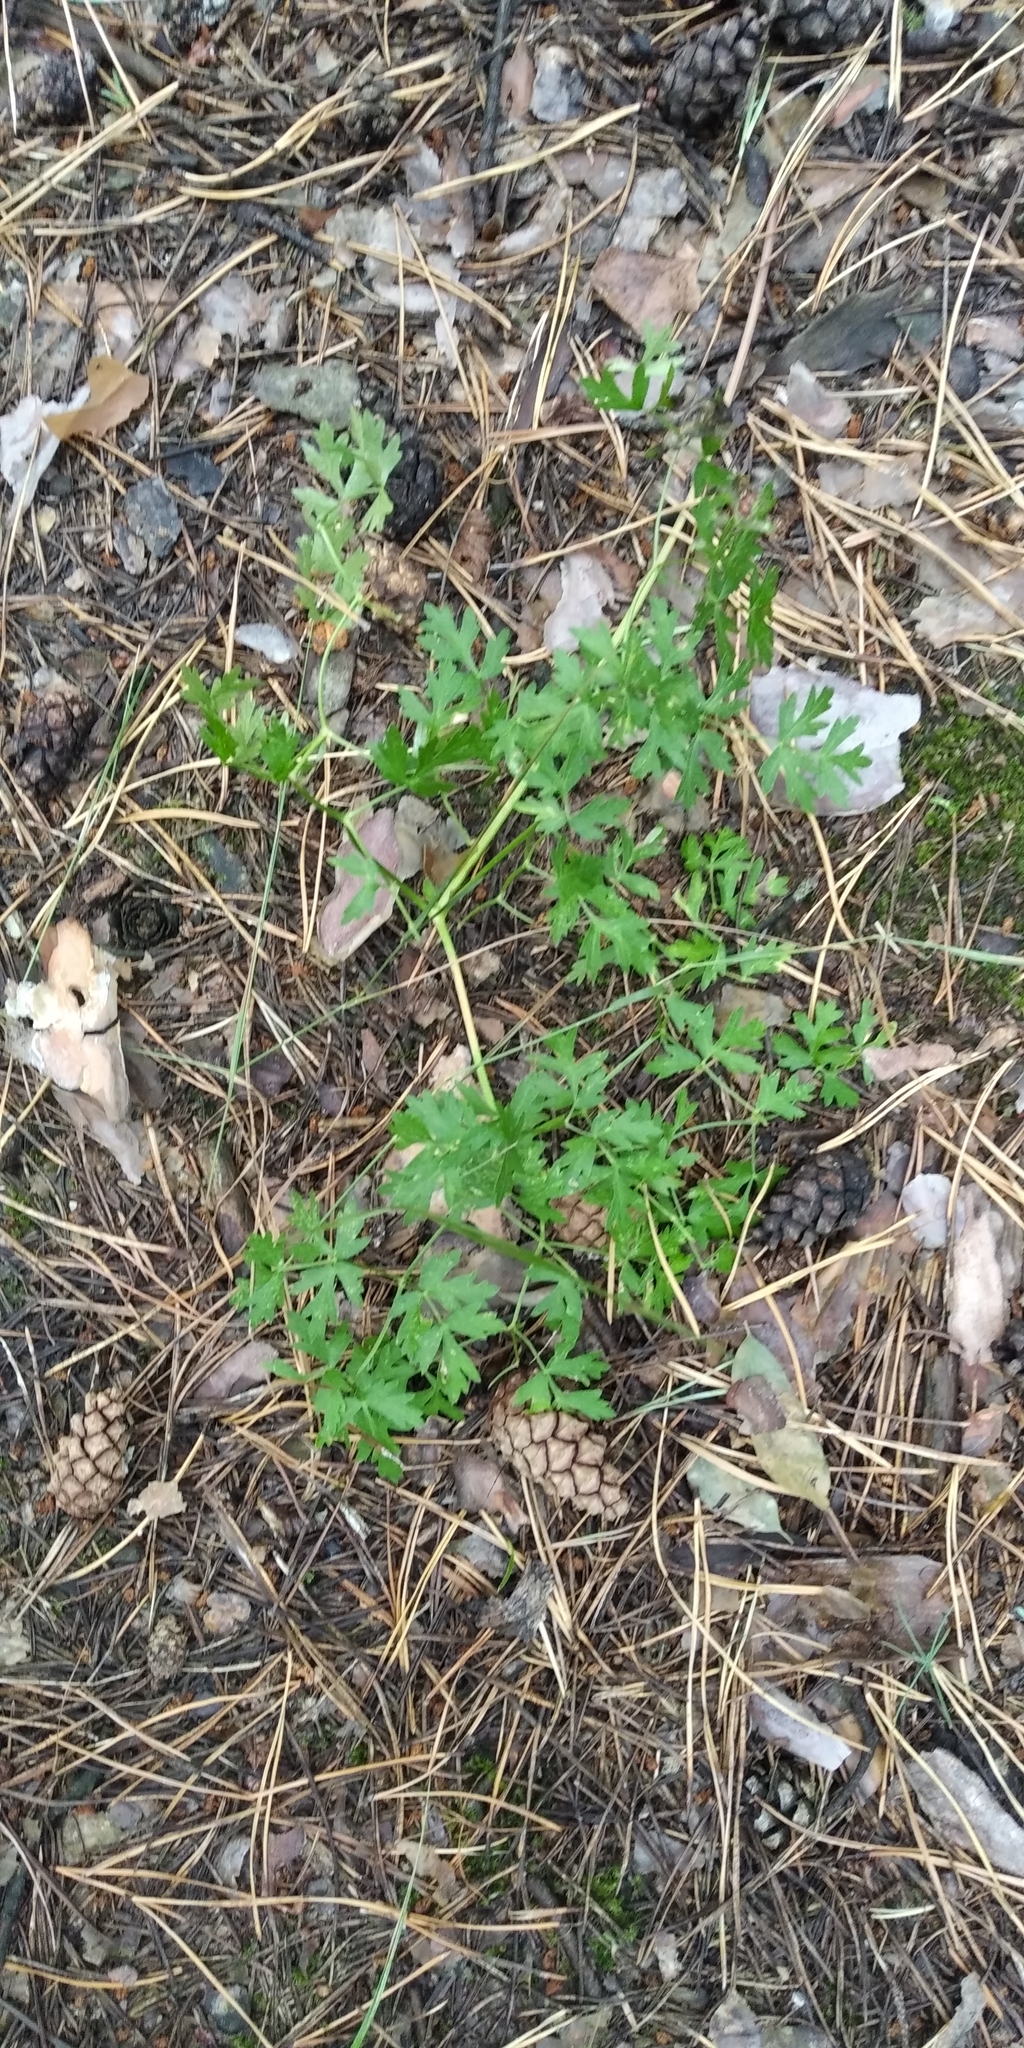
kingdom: Plantae
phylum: Tracheophyta
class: Magnoliopsida
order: Apiales
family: Apiaceae
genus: Oreoselinum
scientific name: Oreoselinum nigrum
